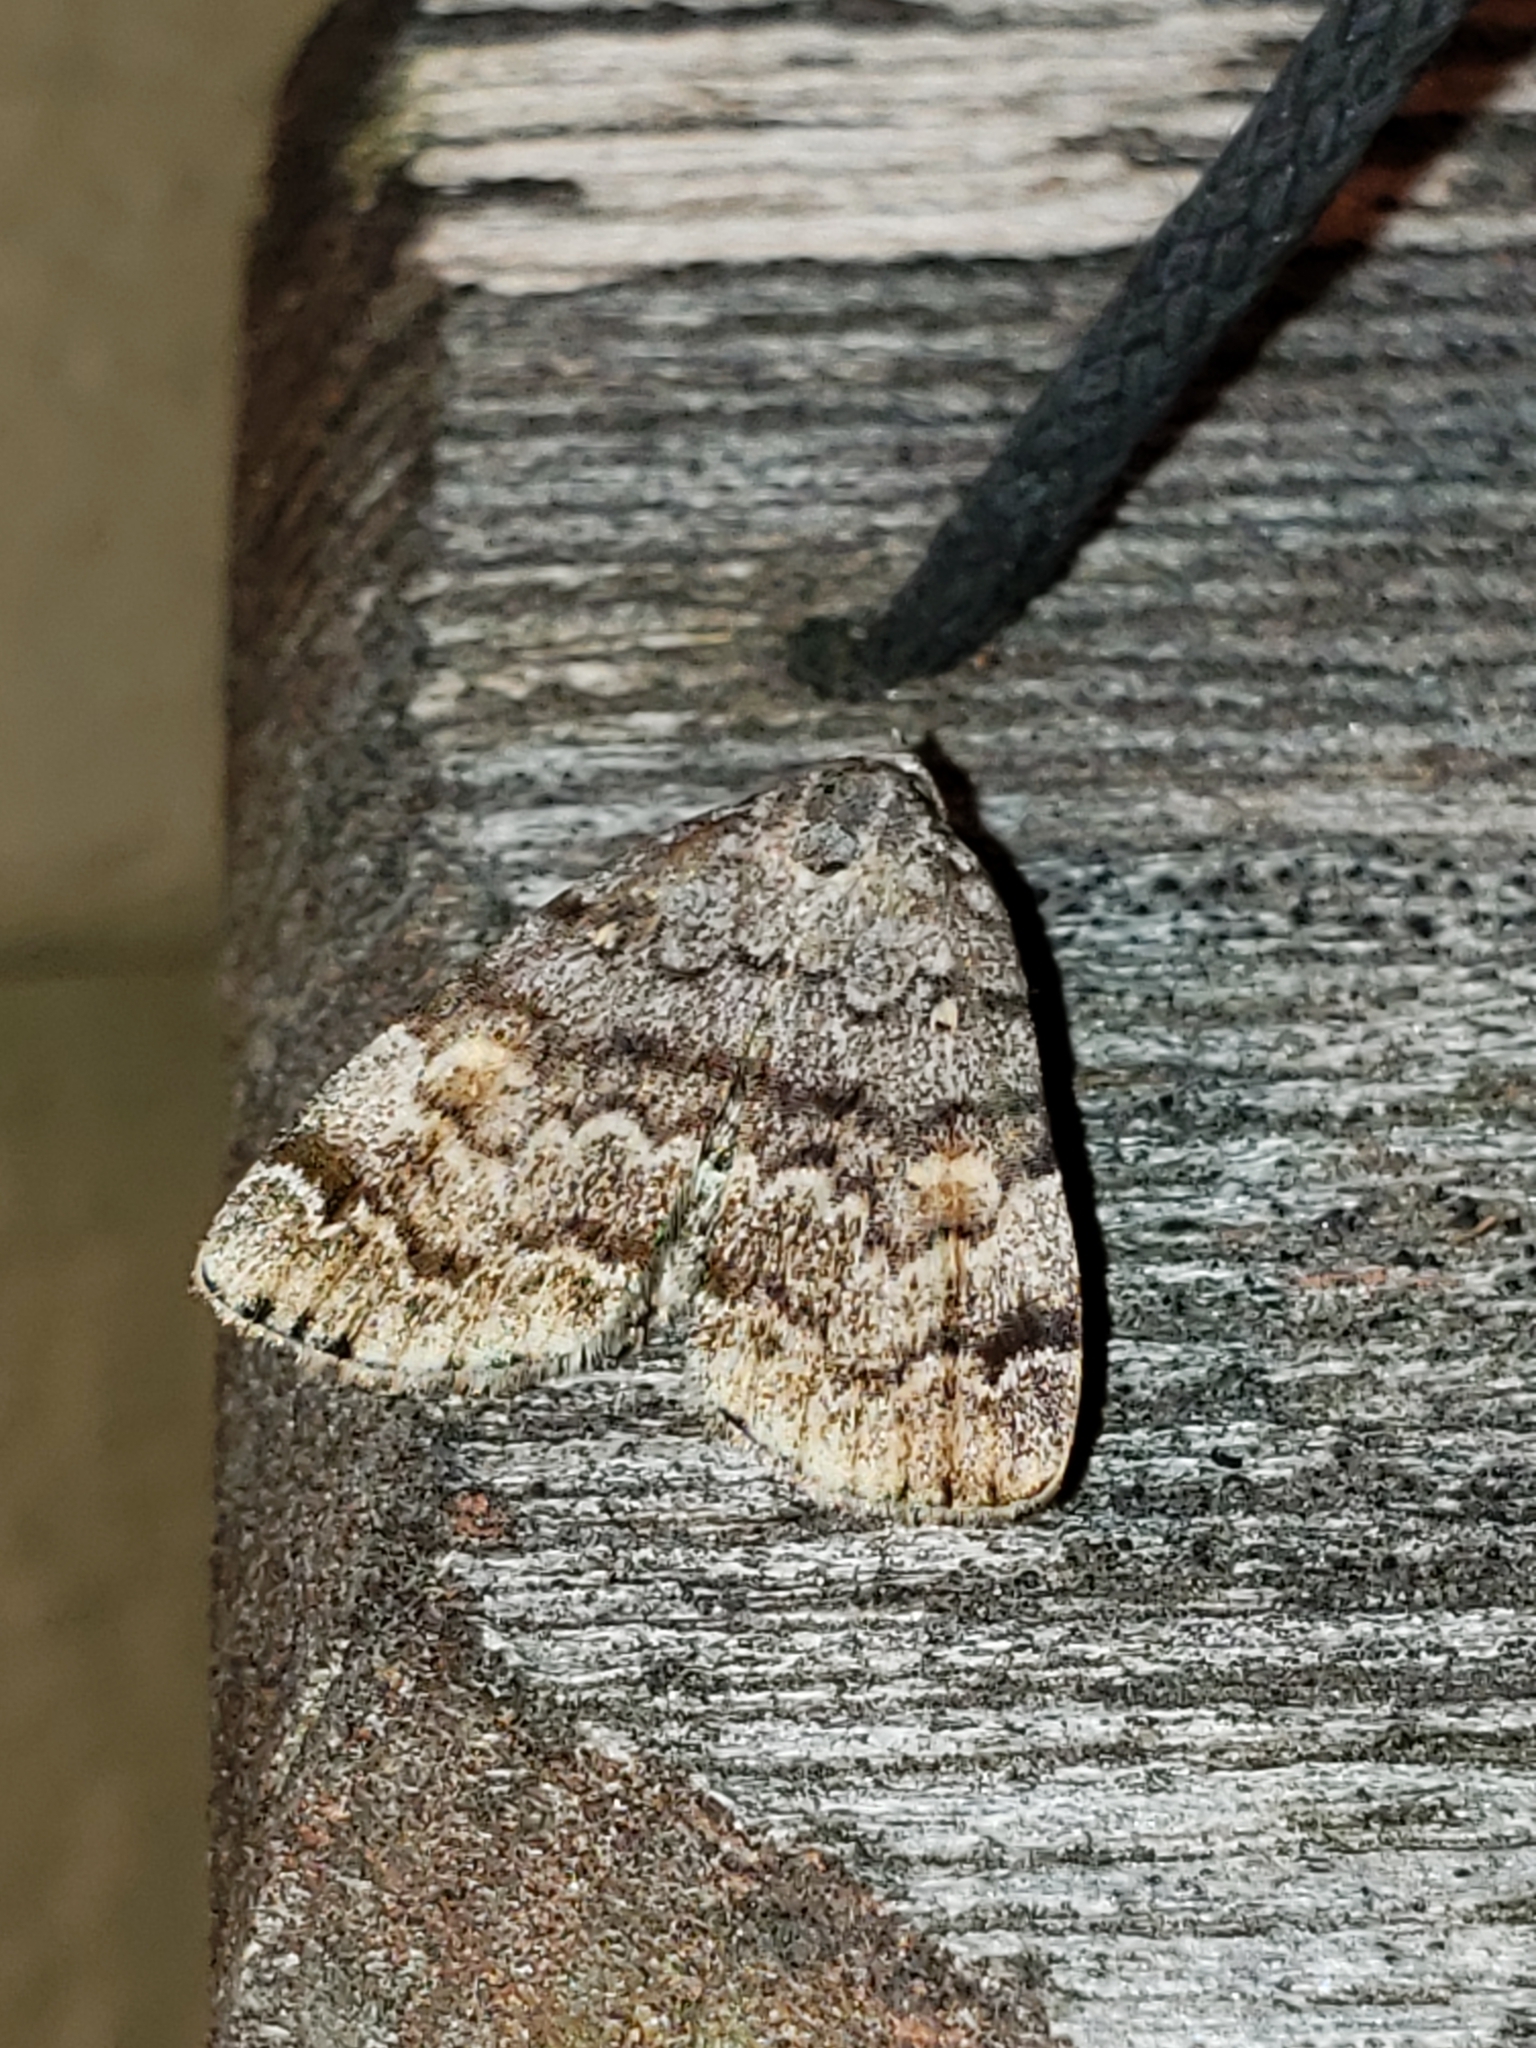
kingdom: Animalia
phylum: Arthropoda
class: Insecta
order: Lepidoptera
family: Erebidae
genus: Idia
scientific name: Idia americalis
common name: American idia moth
